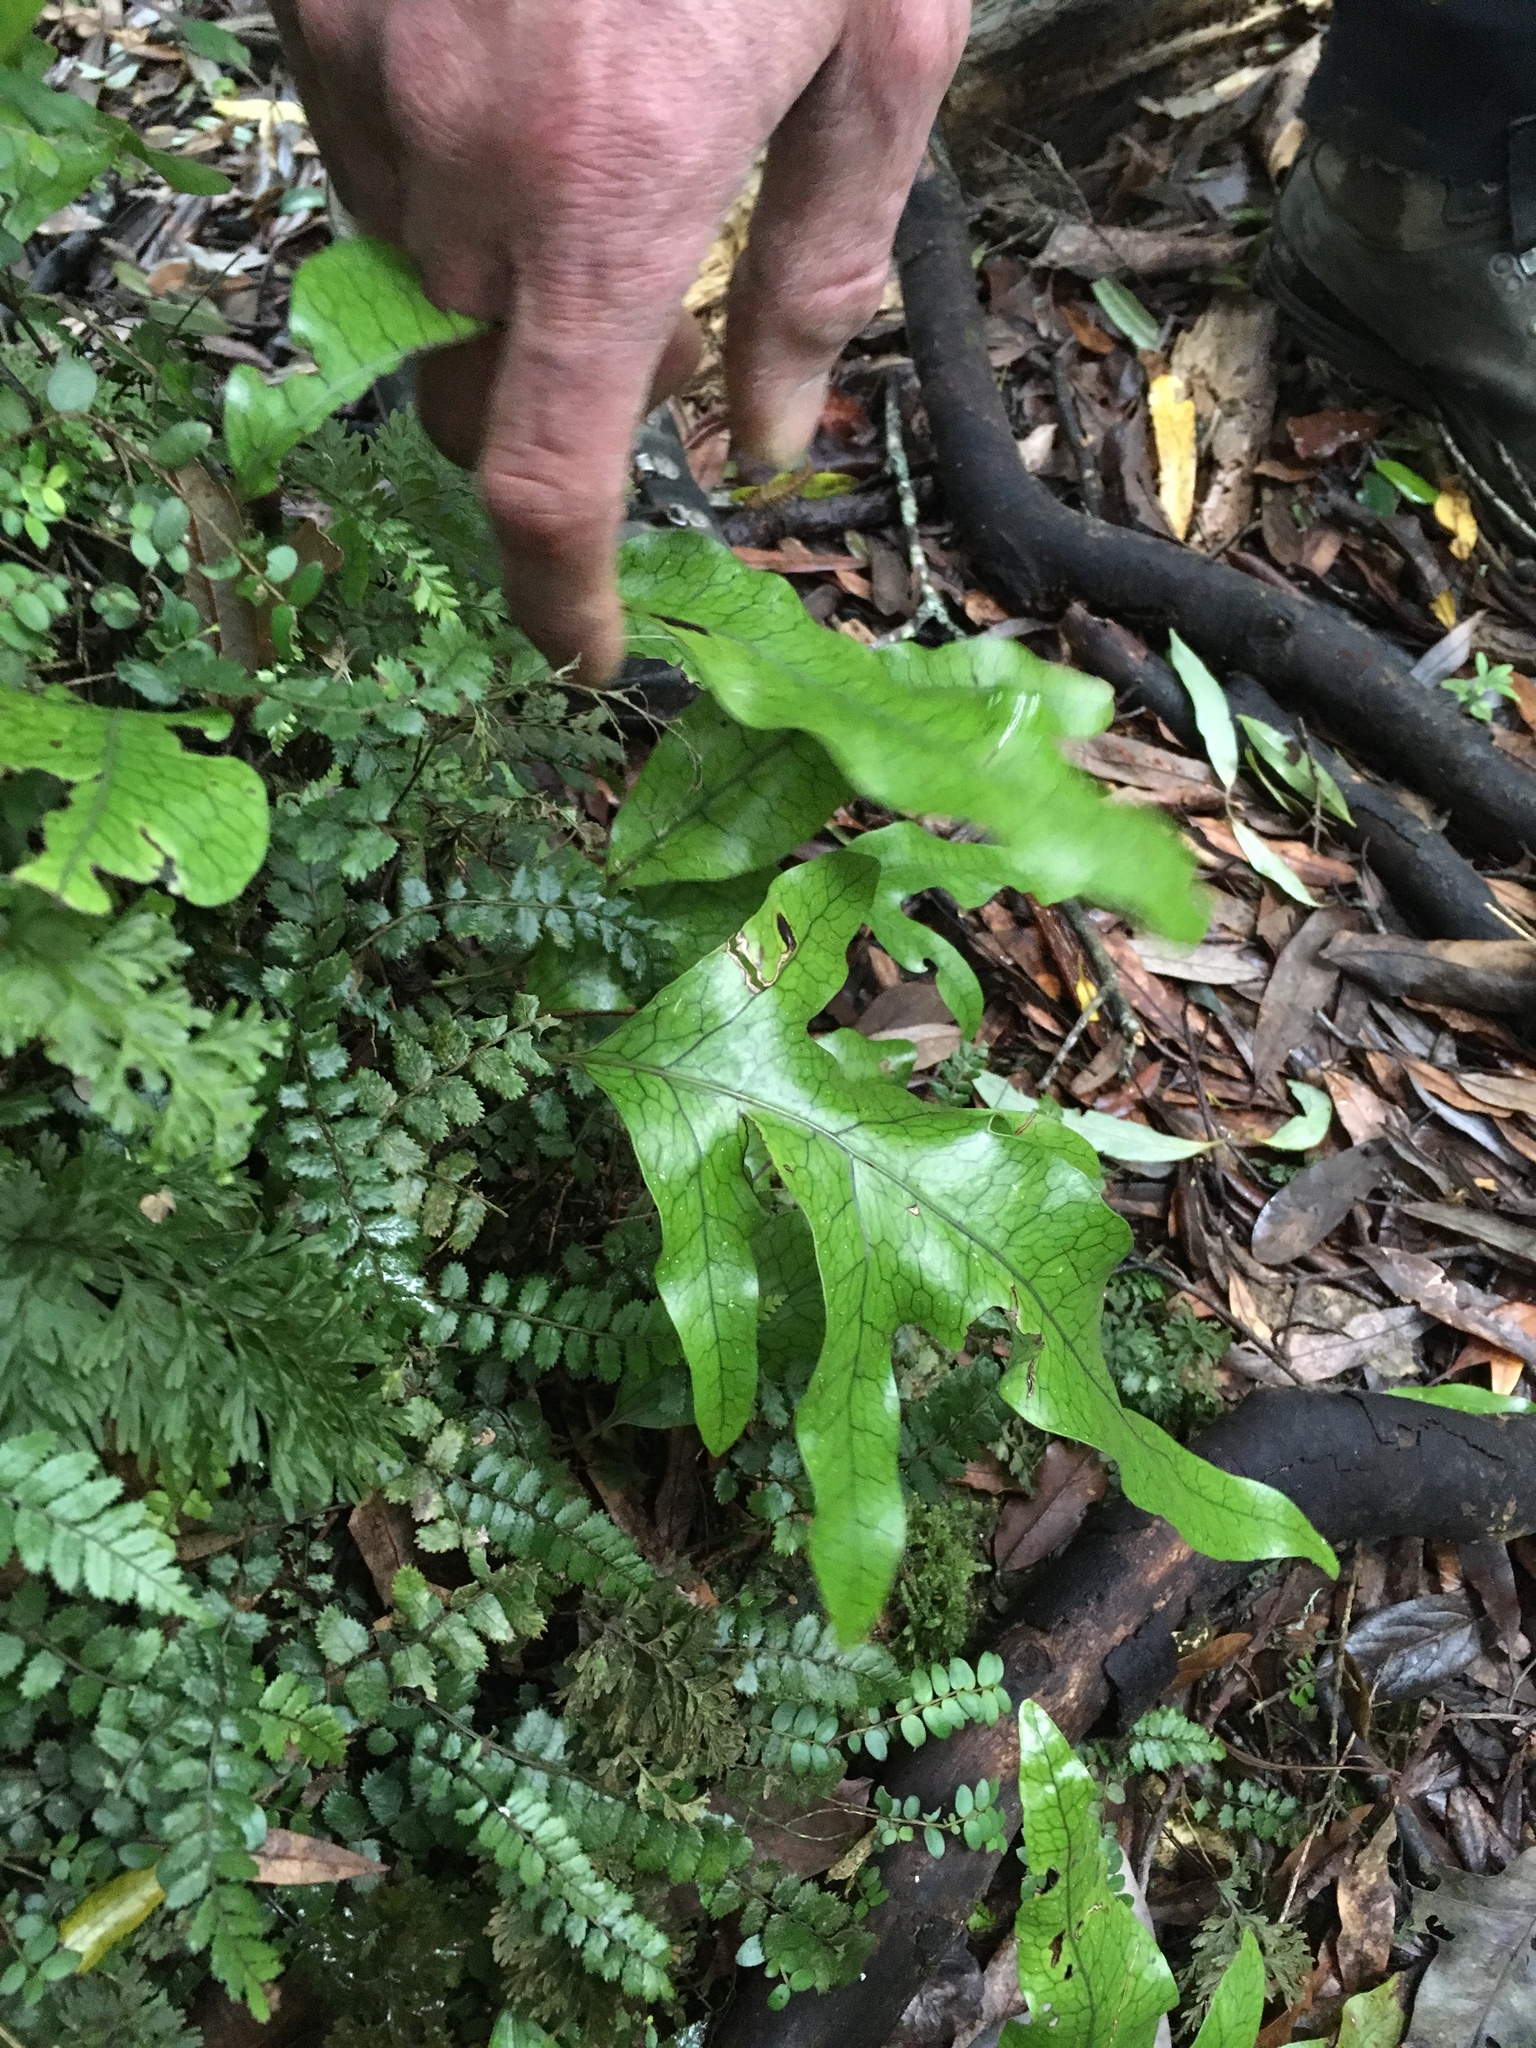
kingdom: Plantae
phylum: Tracheophyta
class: Polypodiopsida
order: Polypodiales
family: Polypodiaceae
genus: Lecanopteris
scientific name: Lecanopteris pustulata
